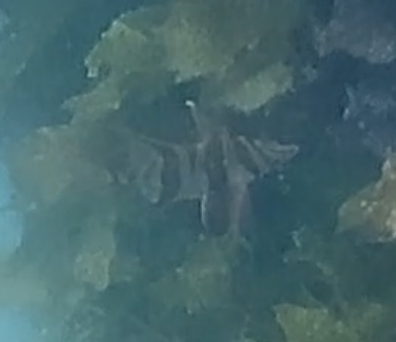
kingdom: Animalia
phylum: Chordata
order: Perciformes
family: Enoplosidae
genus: Enoplosus
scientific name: Enoplosus armatus
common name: Old wife
